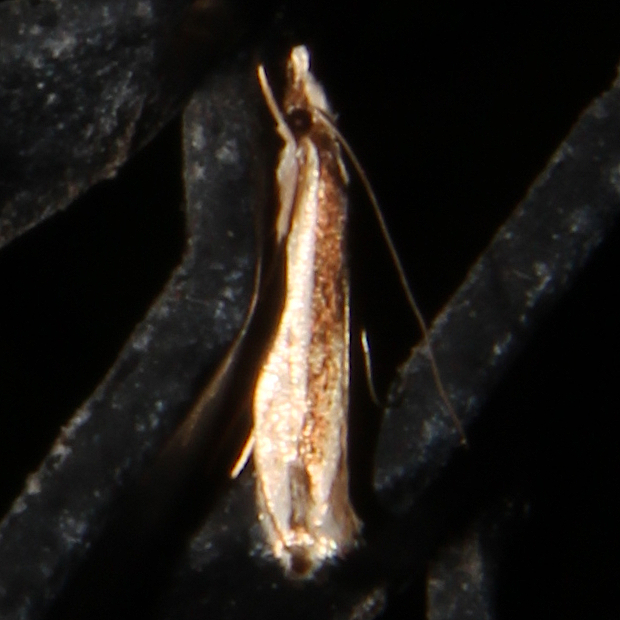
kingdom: Animalia
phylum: Arthropoda
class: Insecta
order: Lepidoptera
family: Tineidae
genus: Erechthias
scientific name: Erechthias chionodira
